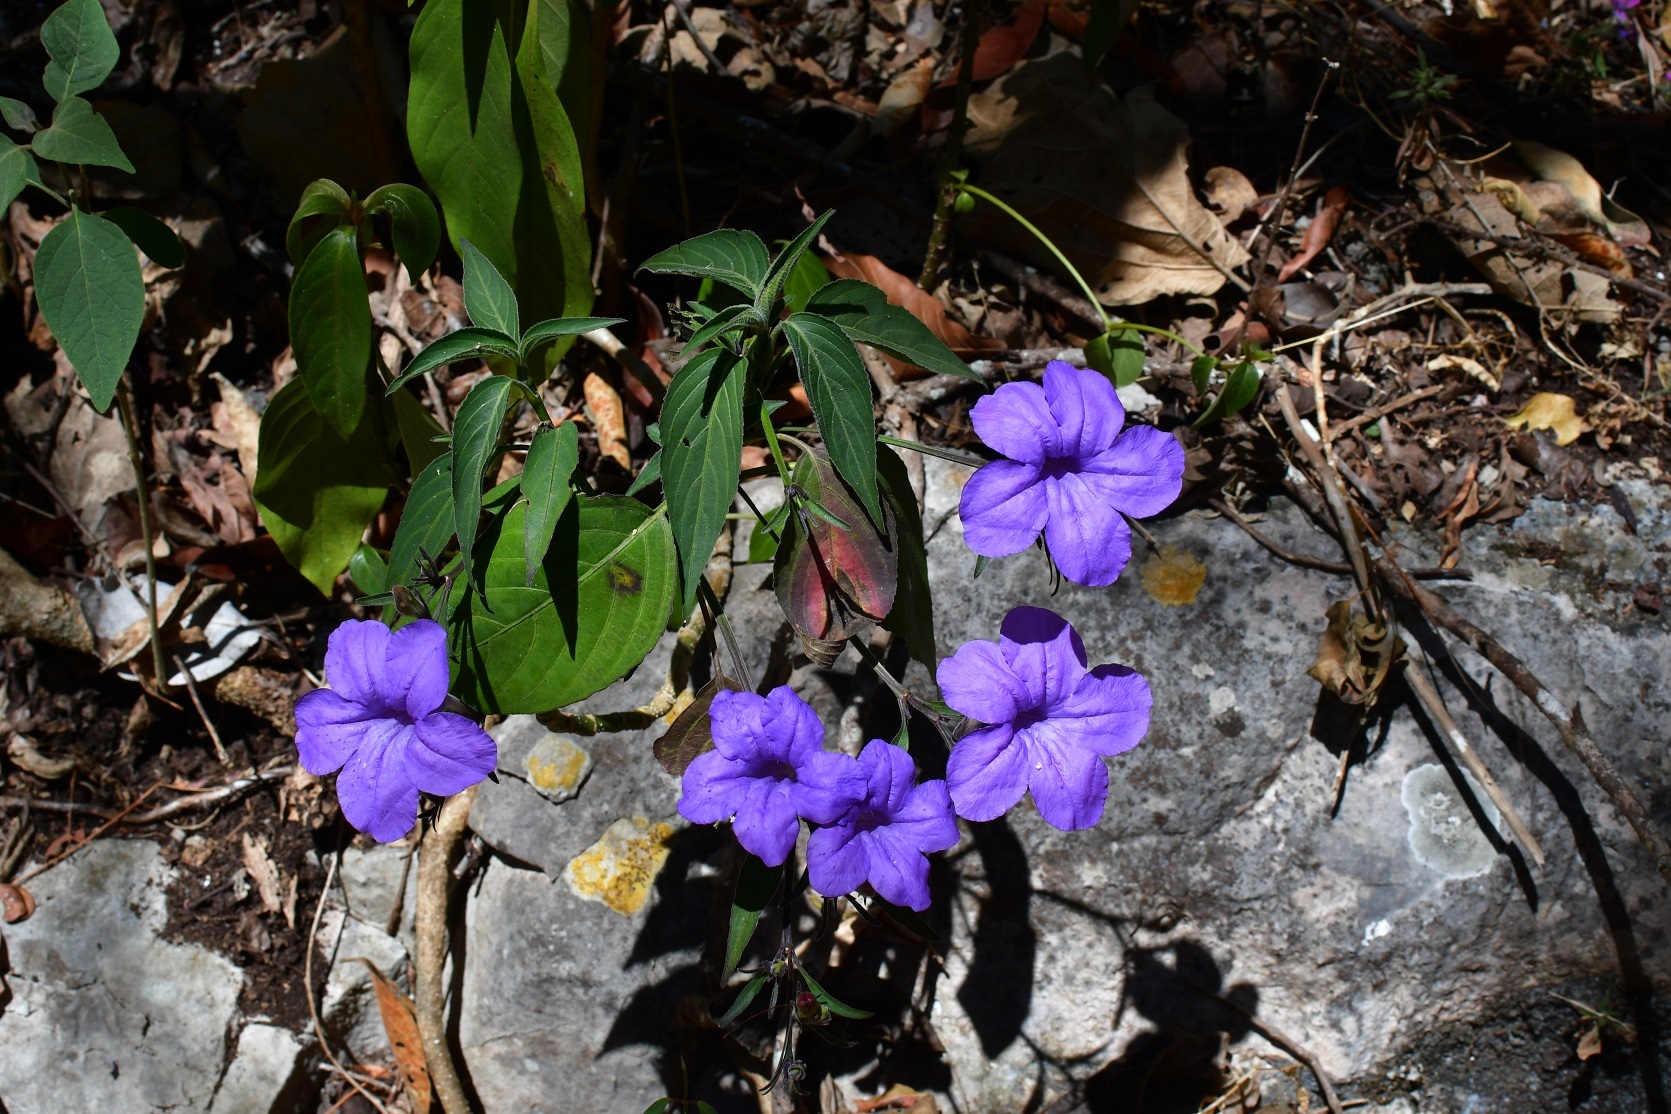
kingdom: Plantae
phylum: Tracheophyta
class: Magnoliopsida
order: Lamiales
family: Acanthaceae
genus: Ruellia
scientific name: Ruellia breedlovei
